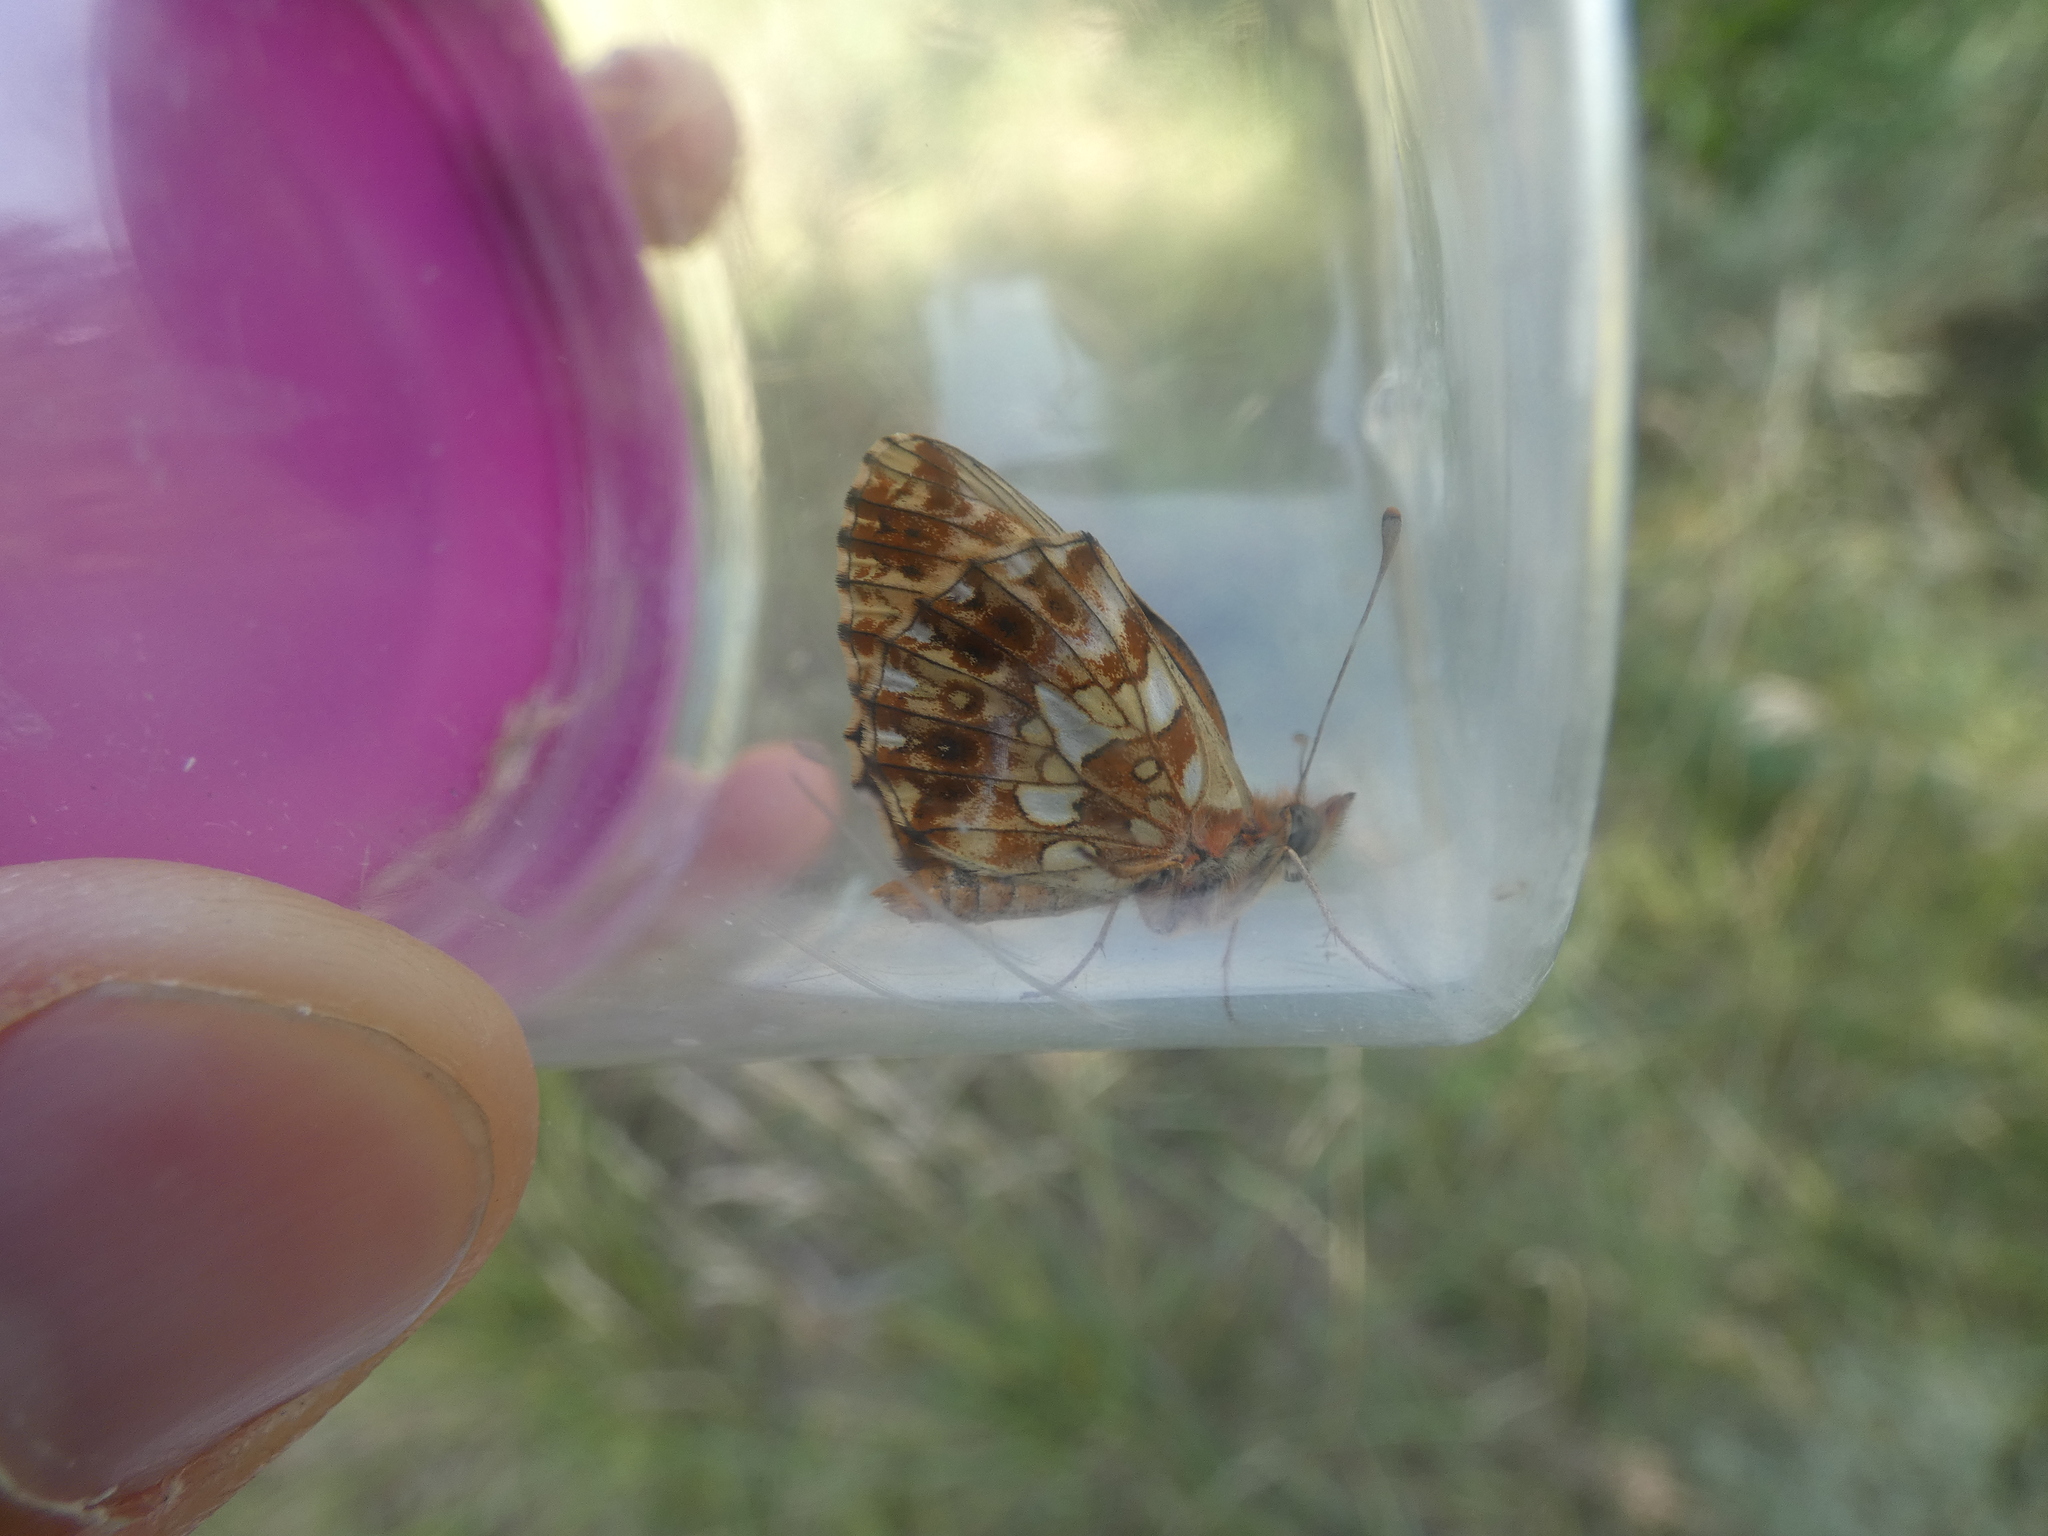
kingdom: Animalia
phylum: Arthropoda
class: Insecta
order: Lepidoptera
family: Nymphalidae
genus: Boloria
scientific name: Boloria dia
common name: Weaver's fritillary
